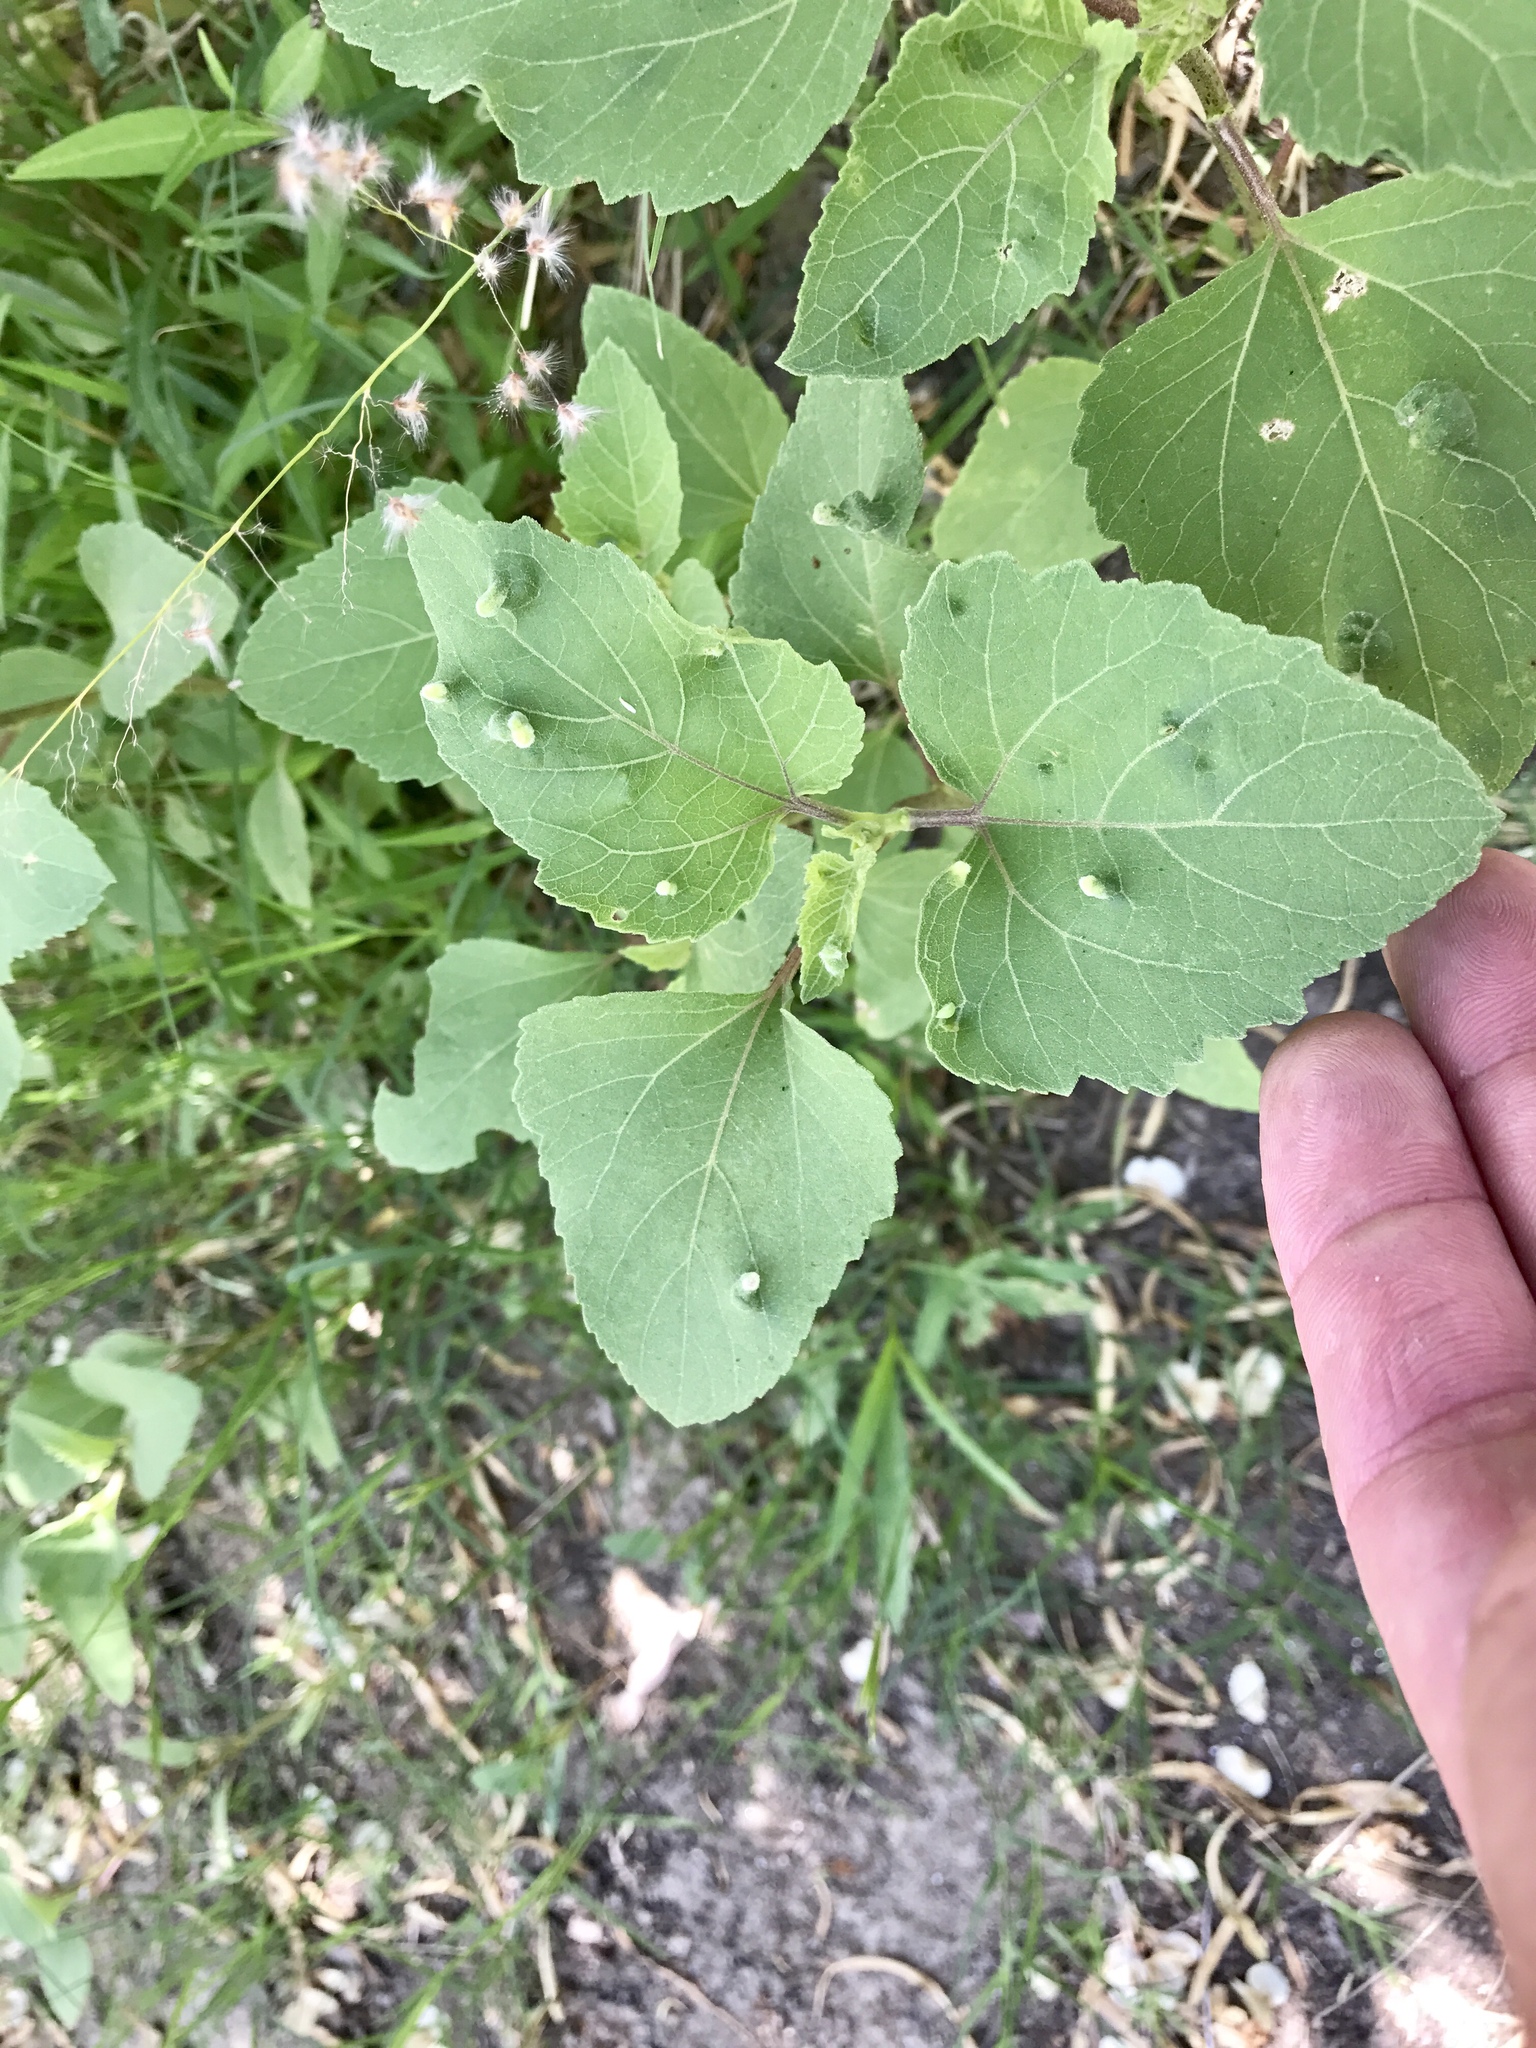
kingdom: Plantae
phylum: Tracheophyta
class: Magnoliopsida
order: Asterales
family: Asteraceae
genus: Xanthium
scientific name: Xanthium strumarium
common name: Rough cocklebur
